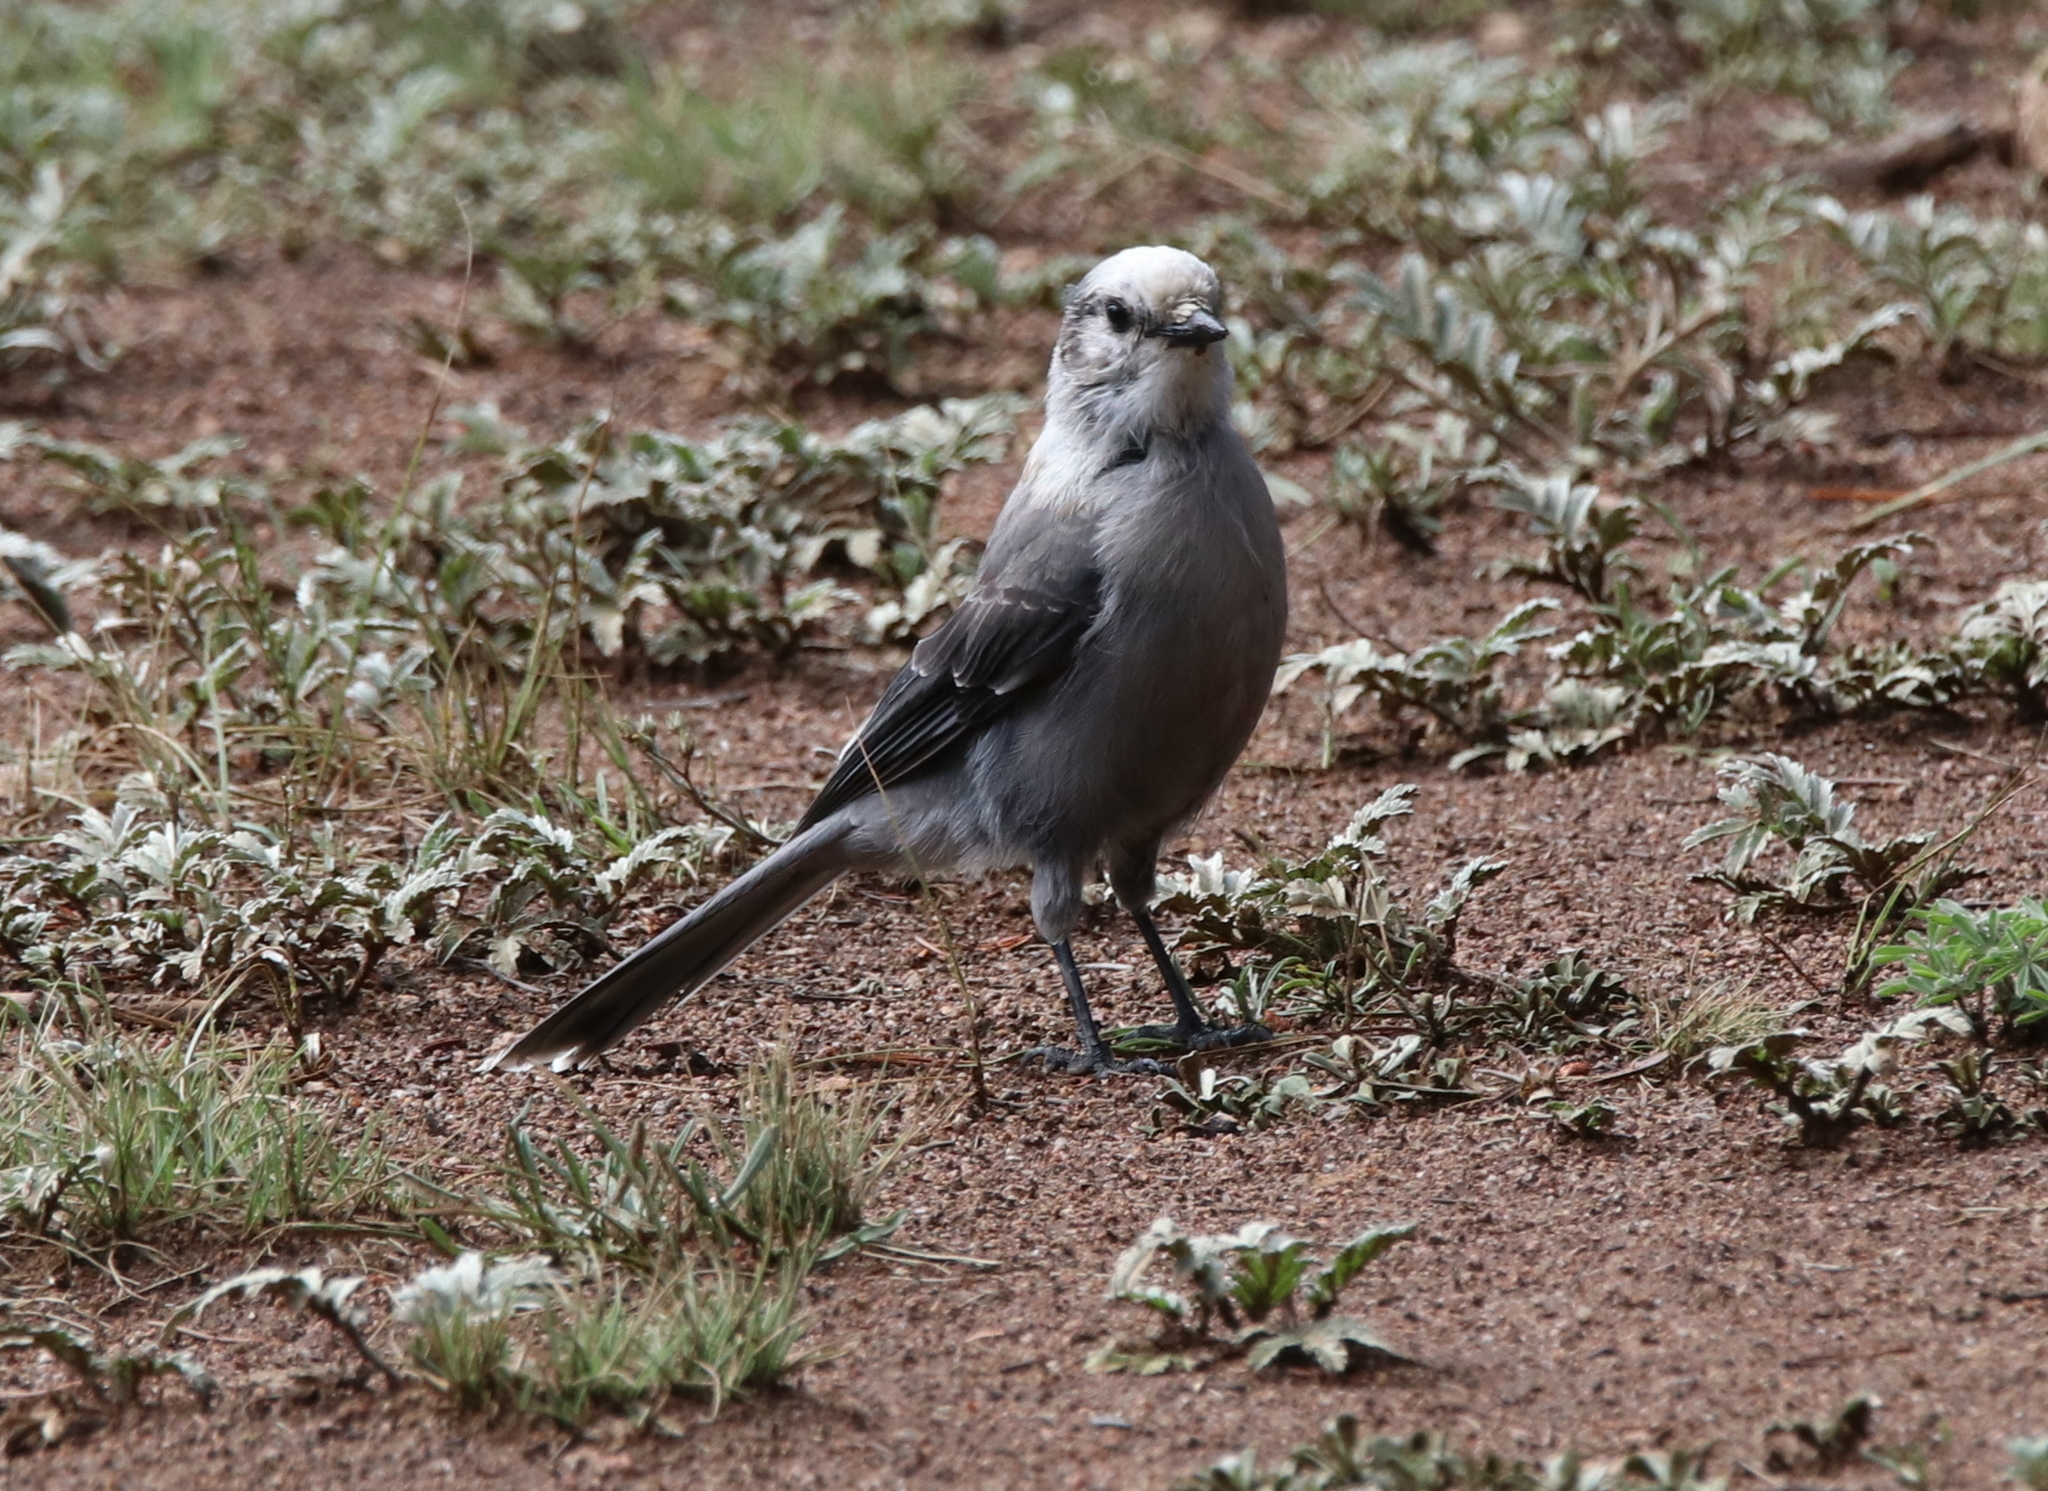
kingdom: Animalia
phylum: Chordata
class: Aves
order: Passeriformes
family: Corvidae
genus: Perisoreus
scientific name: Perisoreus canadensis
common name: Gray jay
